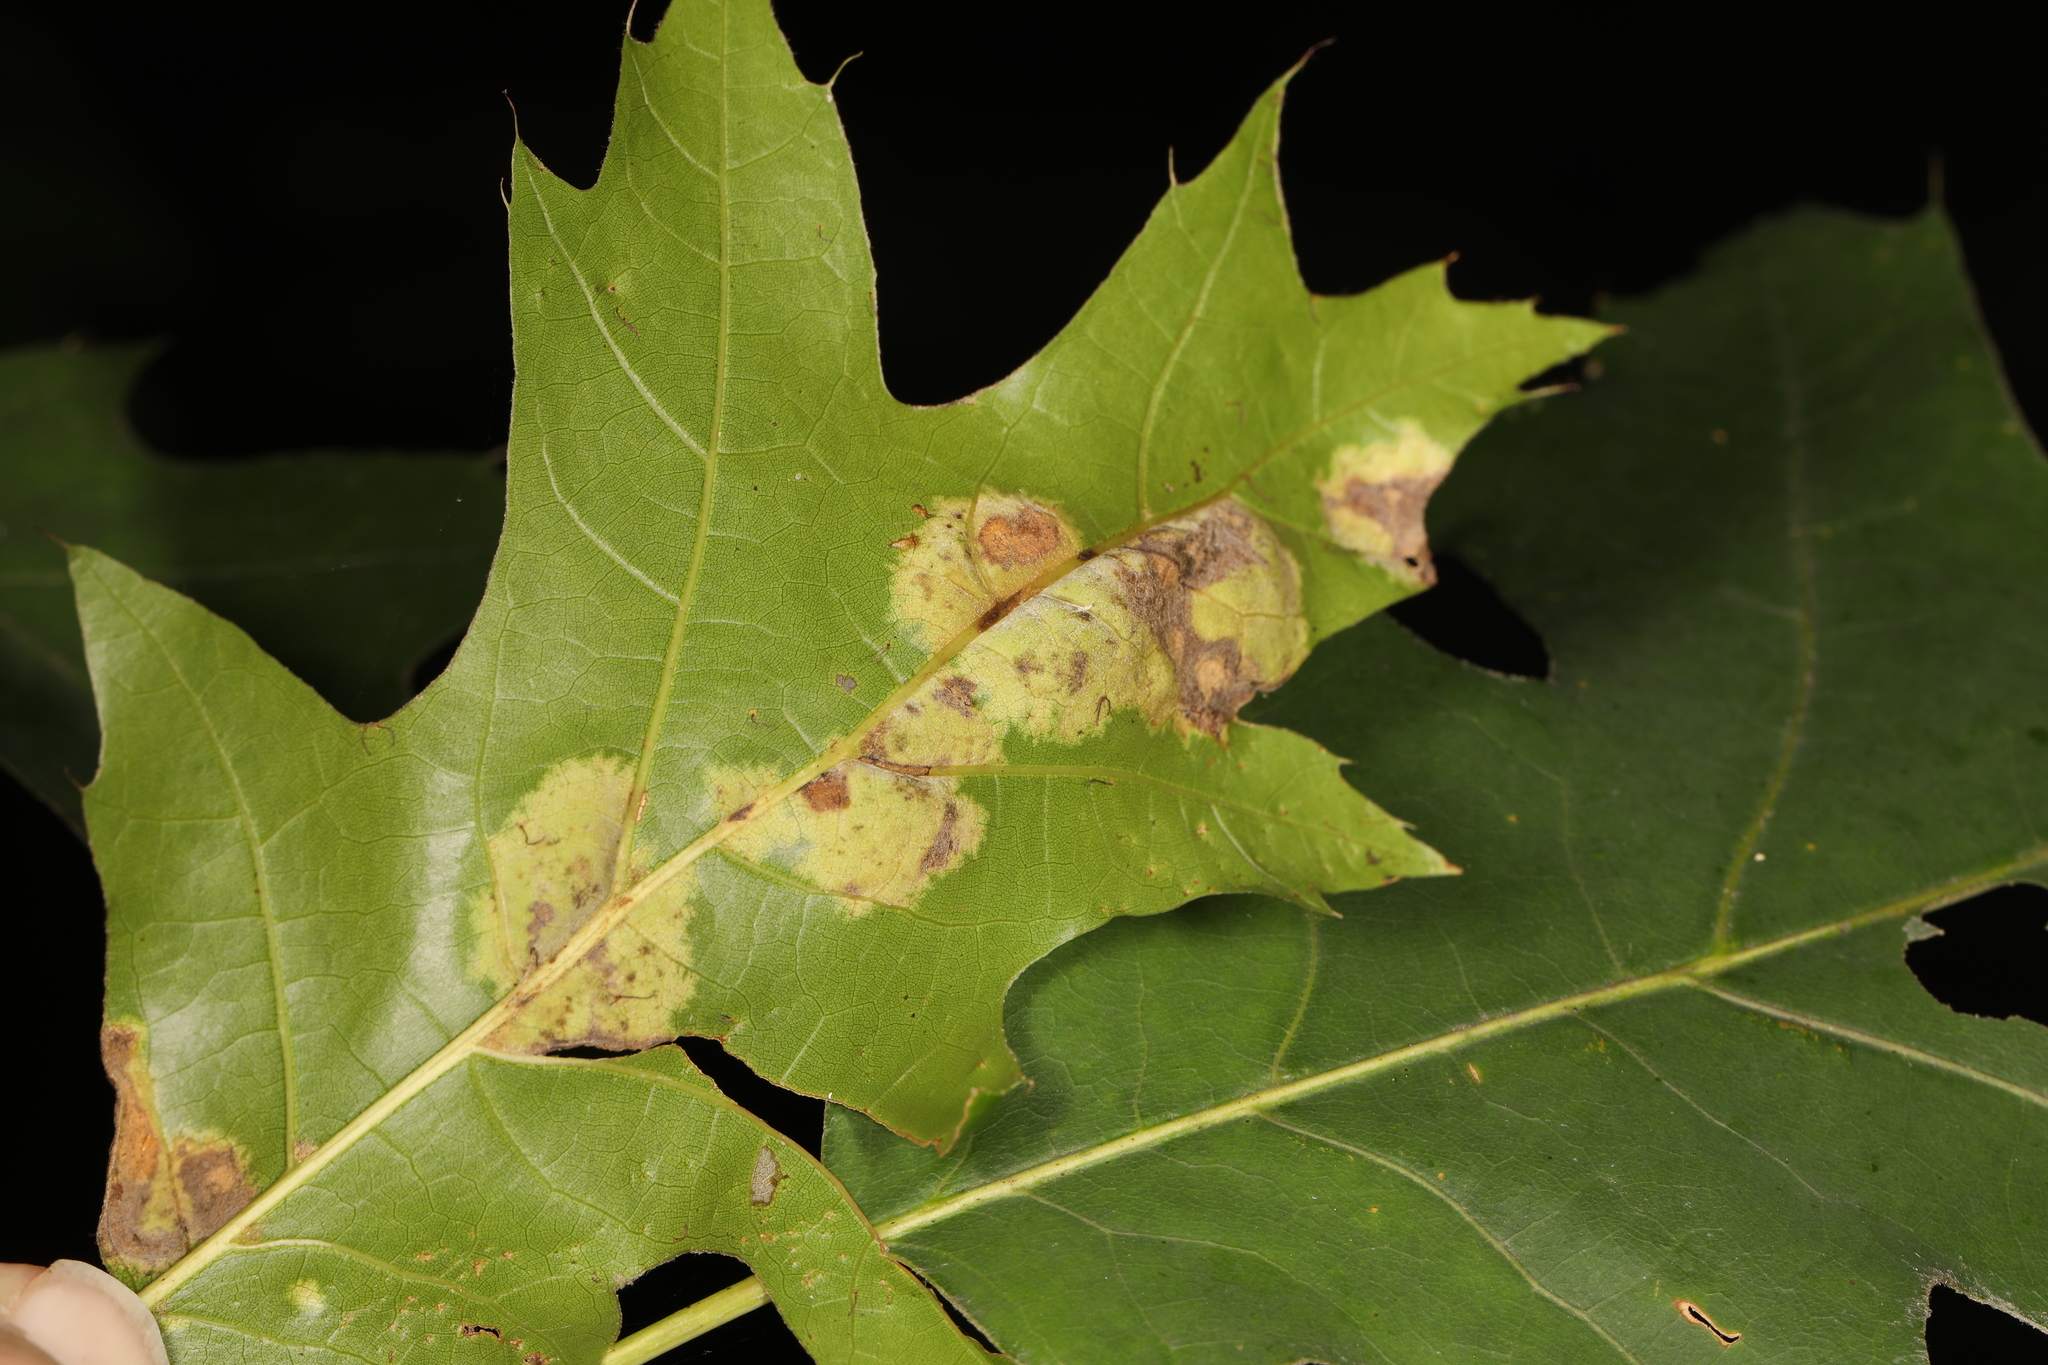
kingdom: Fungi
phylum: Ascomycota
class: Taphrinomycetes
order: Taphrinales
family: Taphrinaceae
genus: Taphrina
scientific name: Taphrina caerulescens
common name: Oak leaf blister
